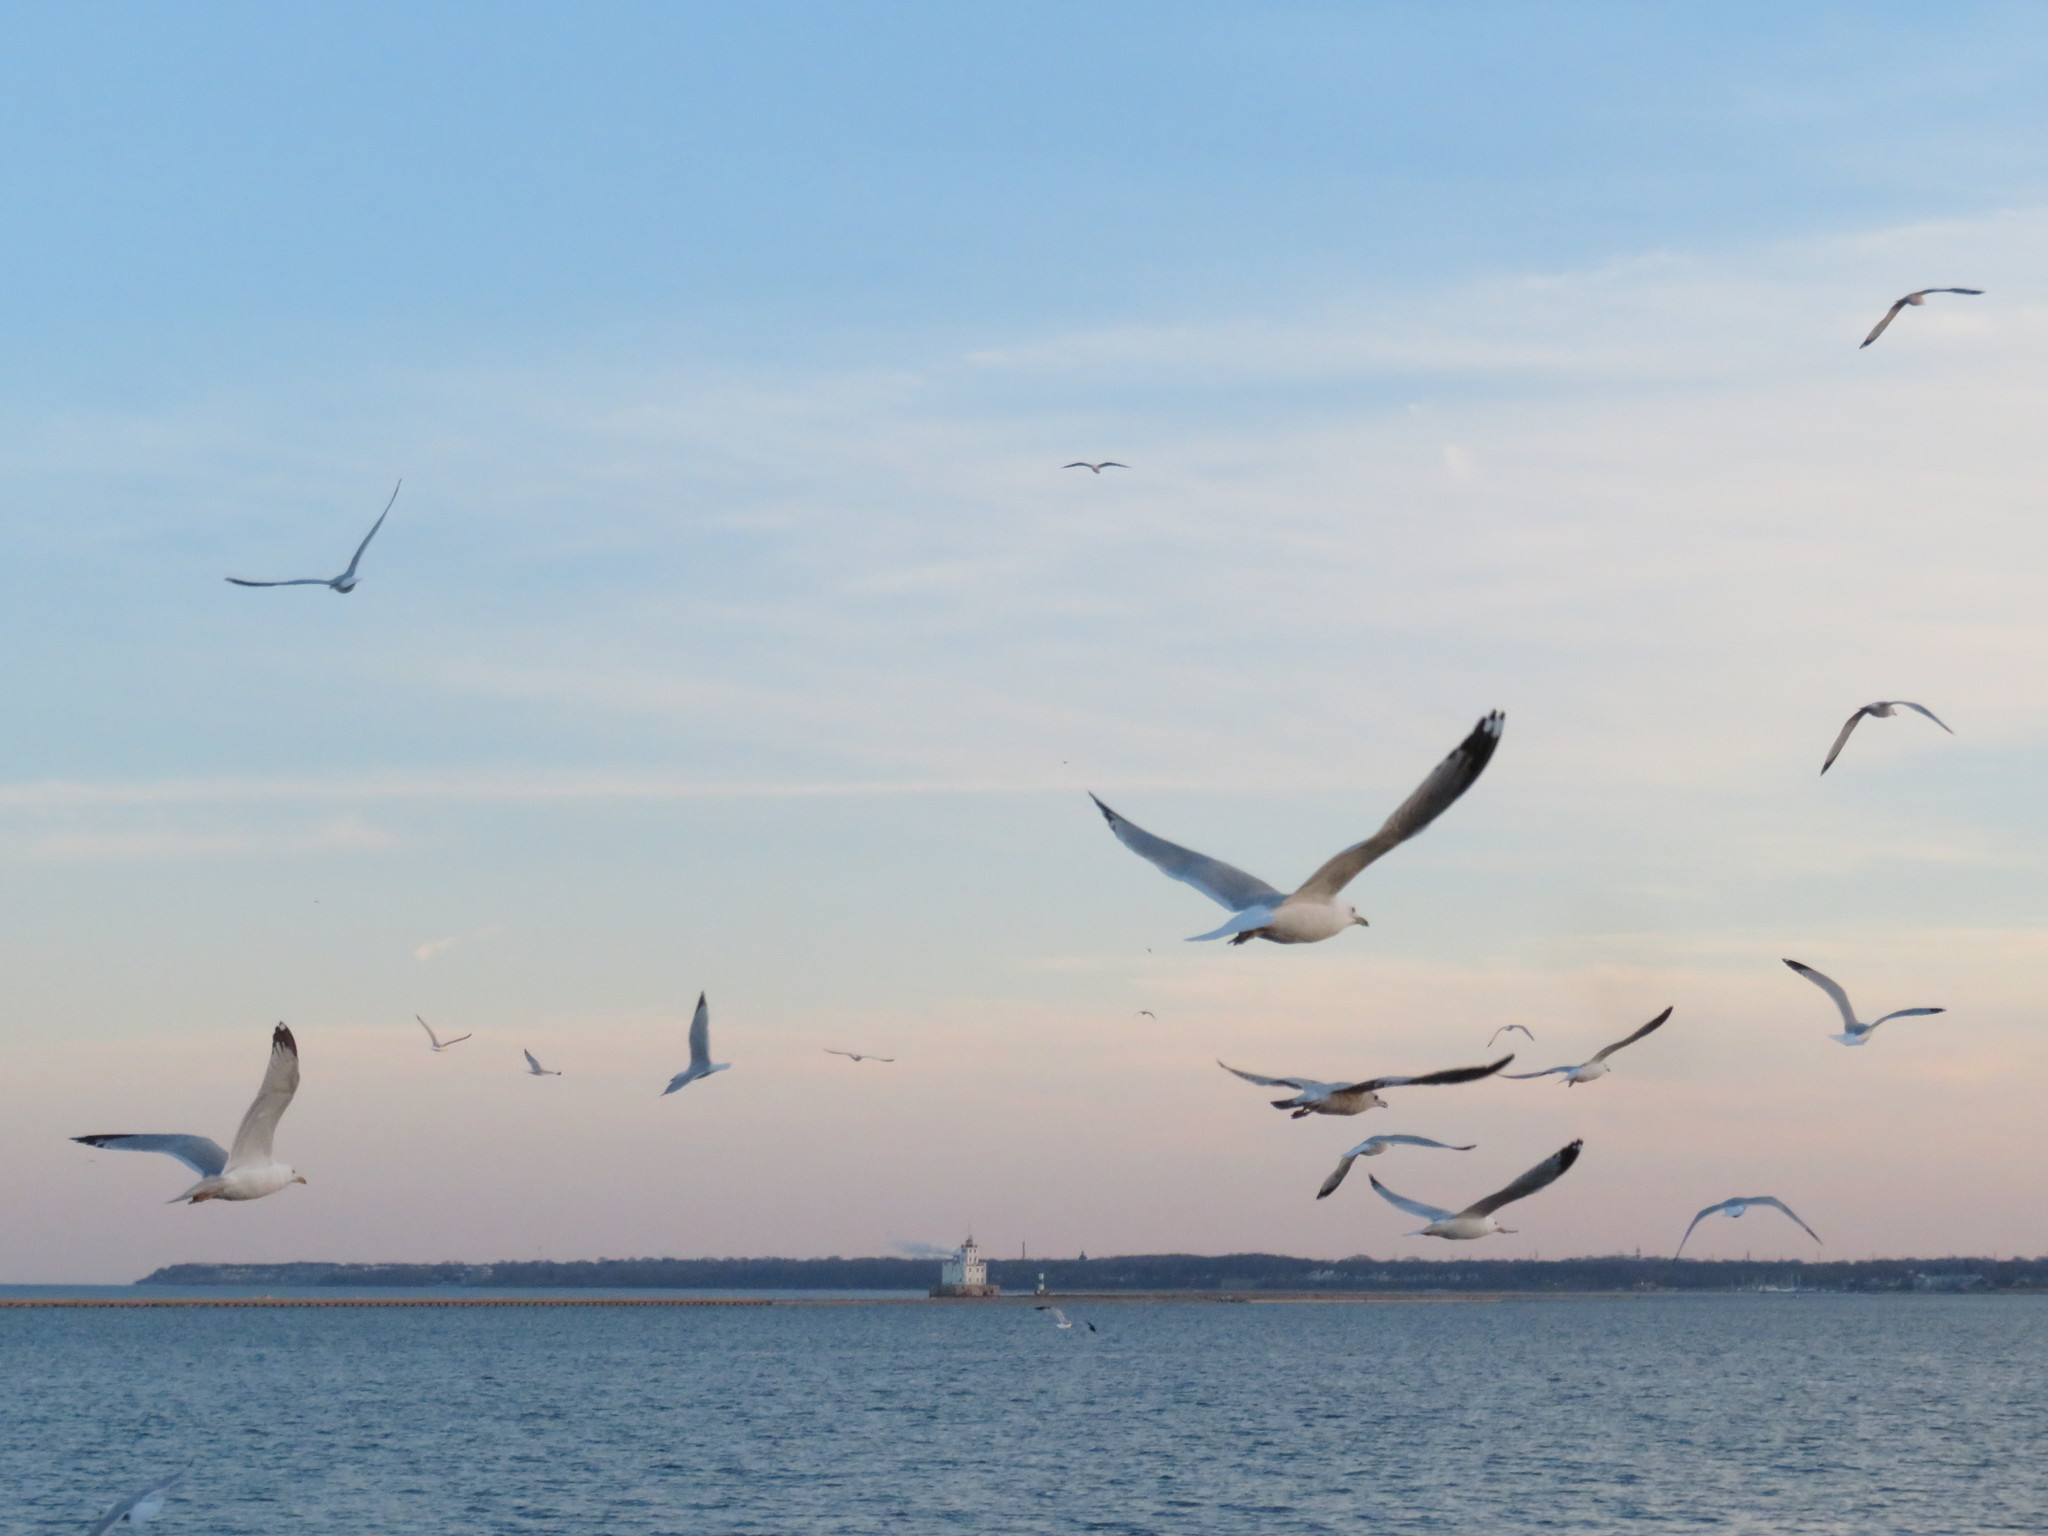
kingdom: Animalia
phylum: Chordata
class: Aves
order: Charadriiformes
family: Laridae
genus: Larus
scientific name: Larus delawarensis
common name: Ring-billed gull
